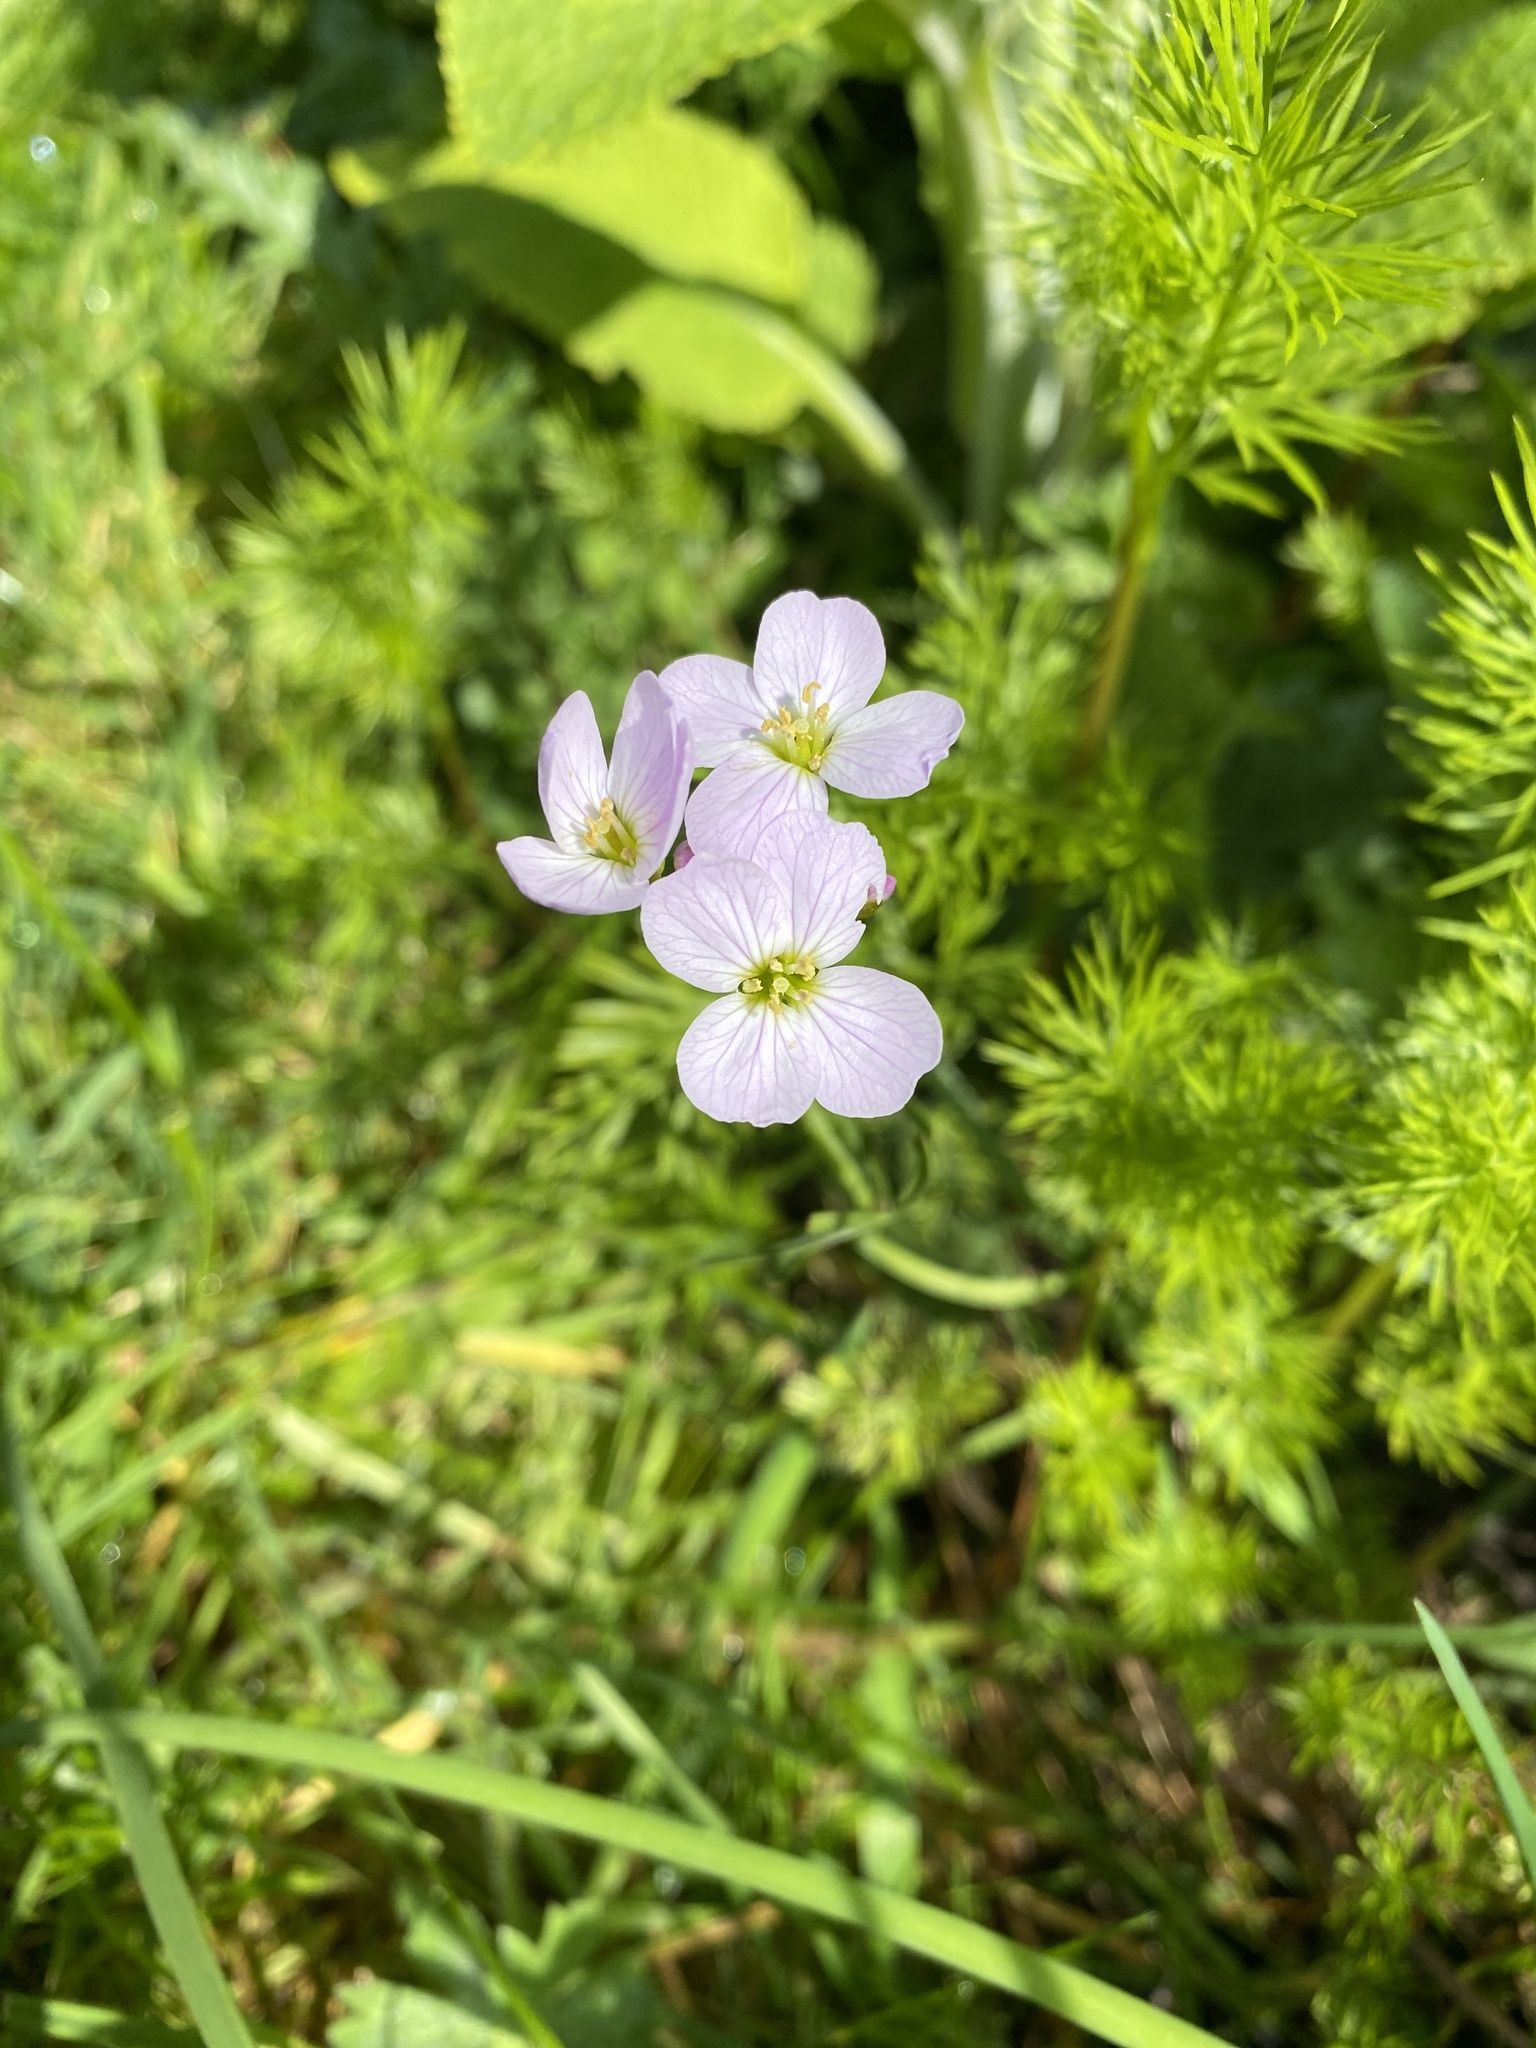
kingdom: Plantae
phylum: Tracheophyta
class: Magnoliopsida
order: Brassicales
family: Brassicaceae
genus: Cardamine
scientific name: Cardamine pratensis
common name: Cuckoo flower
